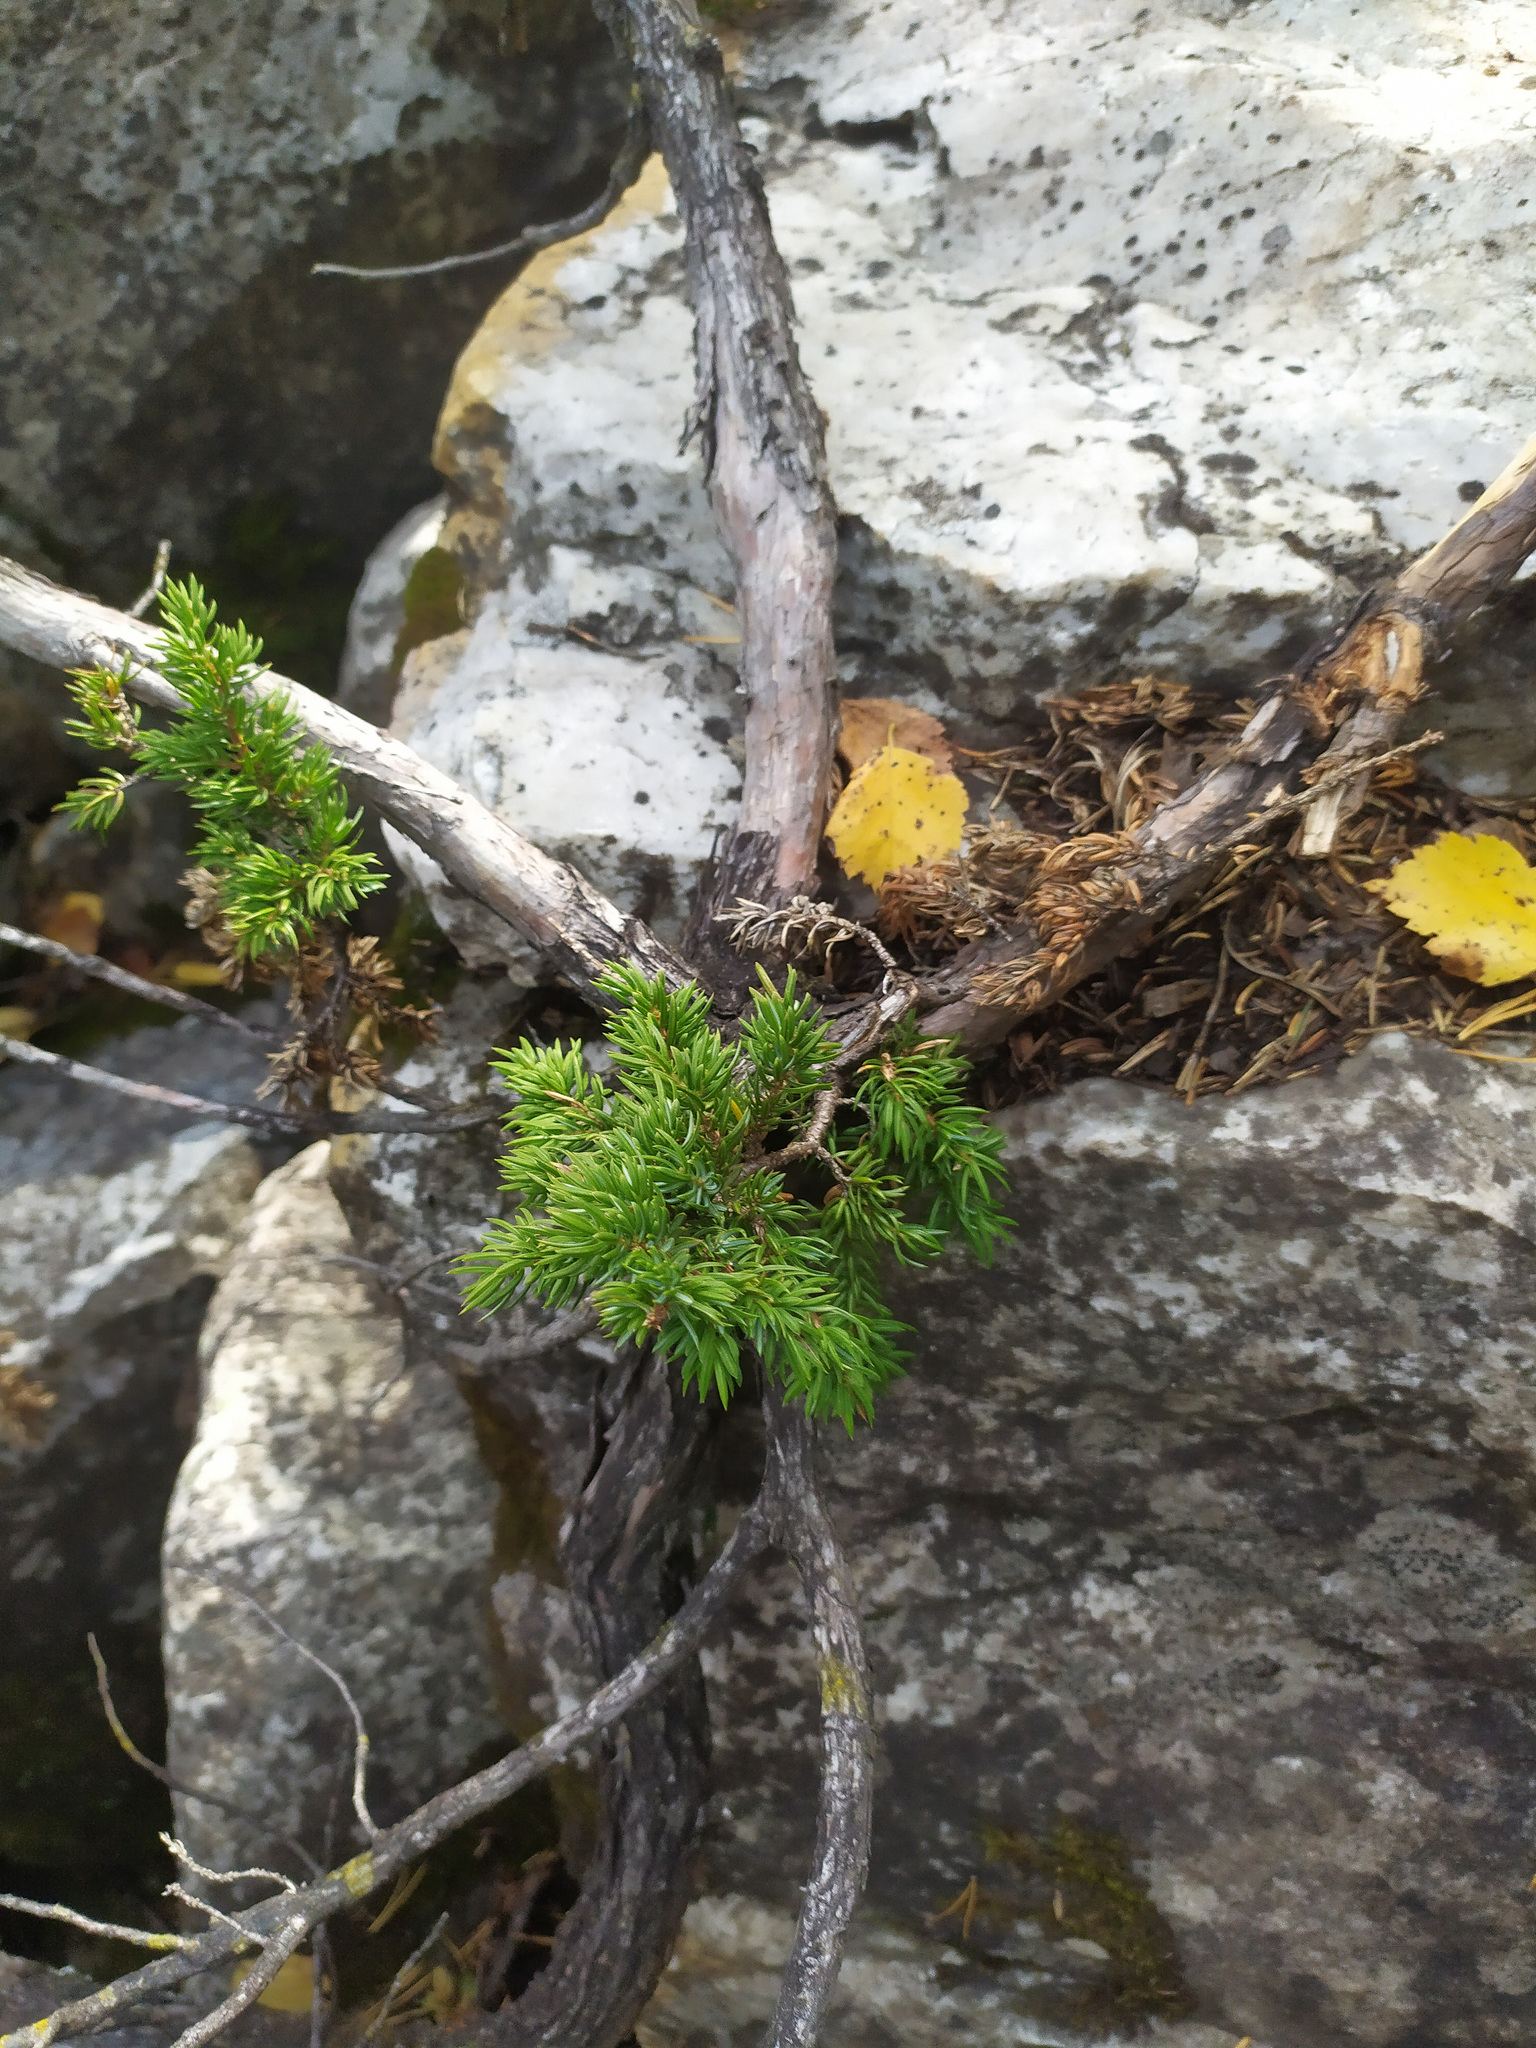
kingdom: Plantae
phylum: Tracheophyta
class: Pinopsida
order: Pinales
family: Cupressaceae
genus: Juniperus
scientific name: Juniperus communis
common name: Common juniper
